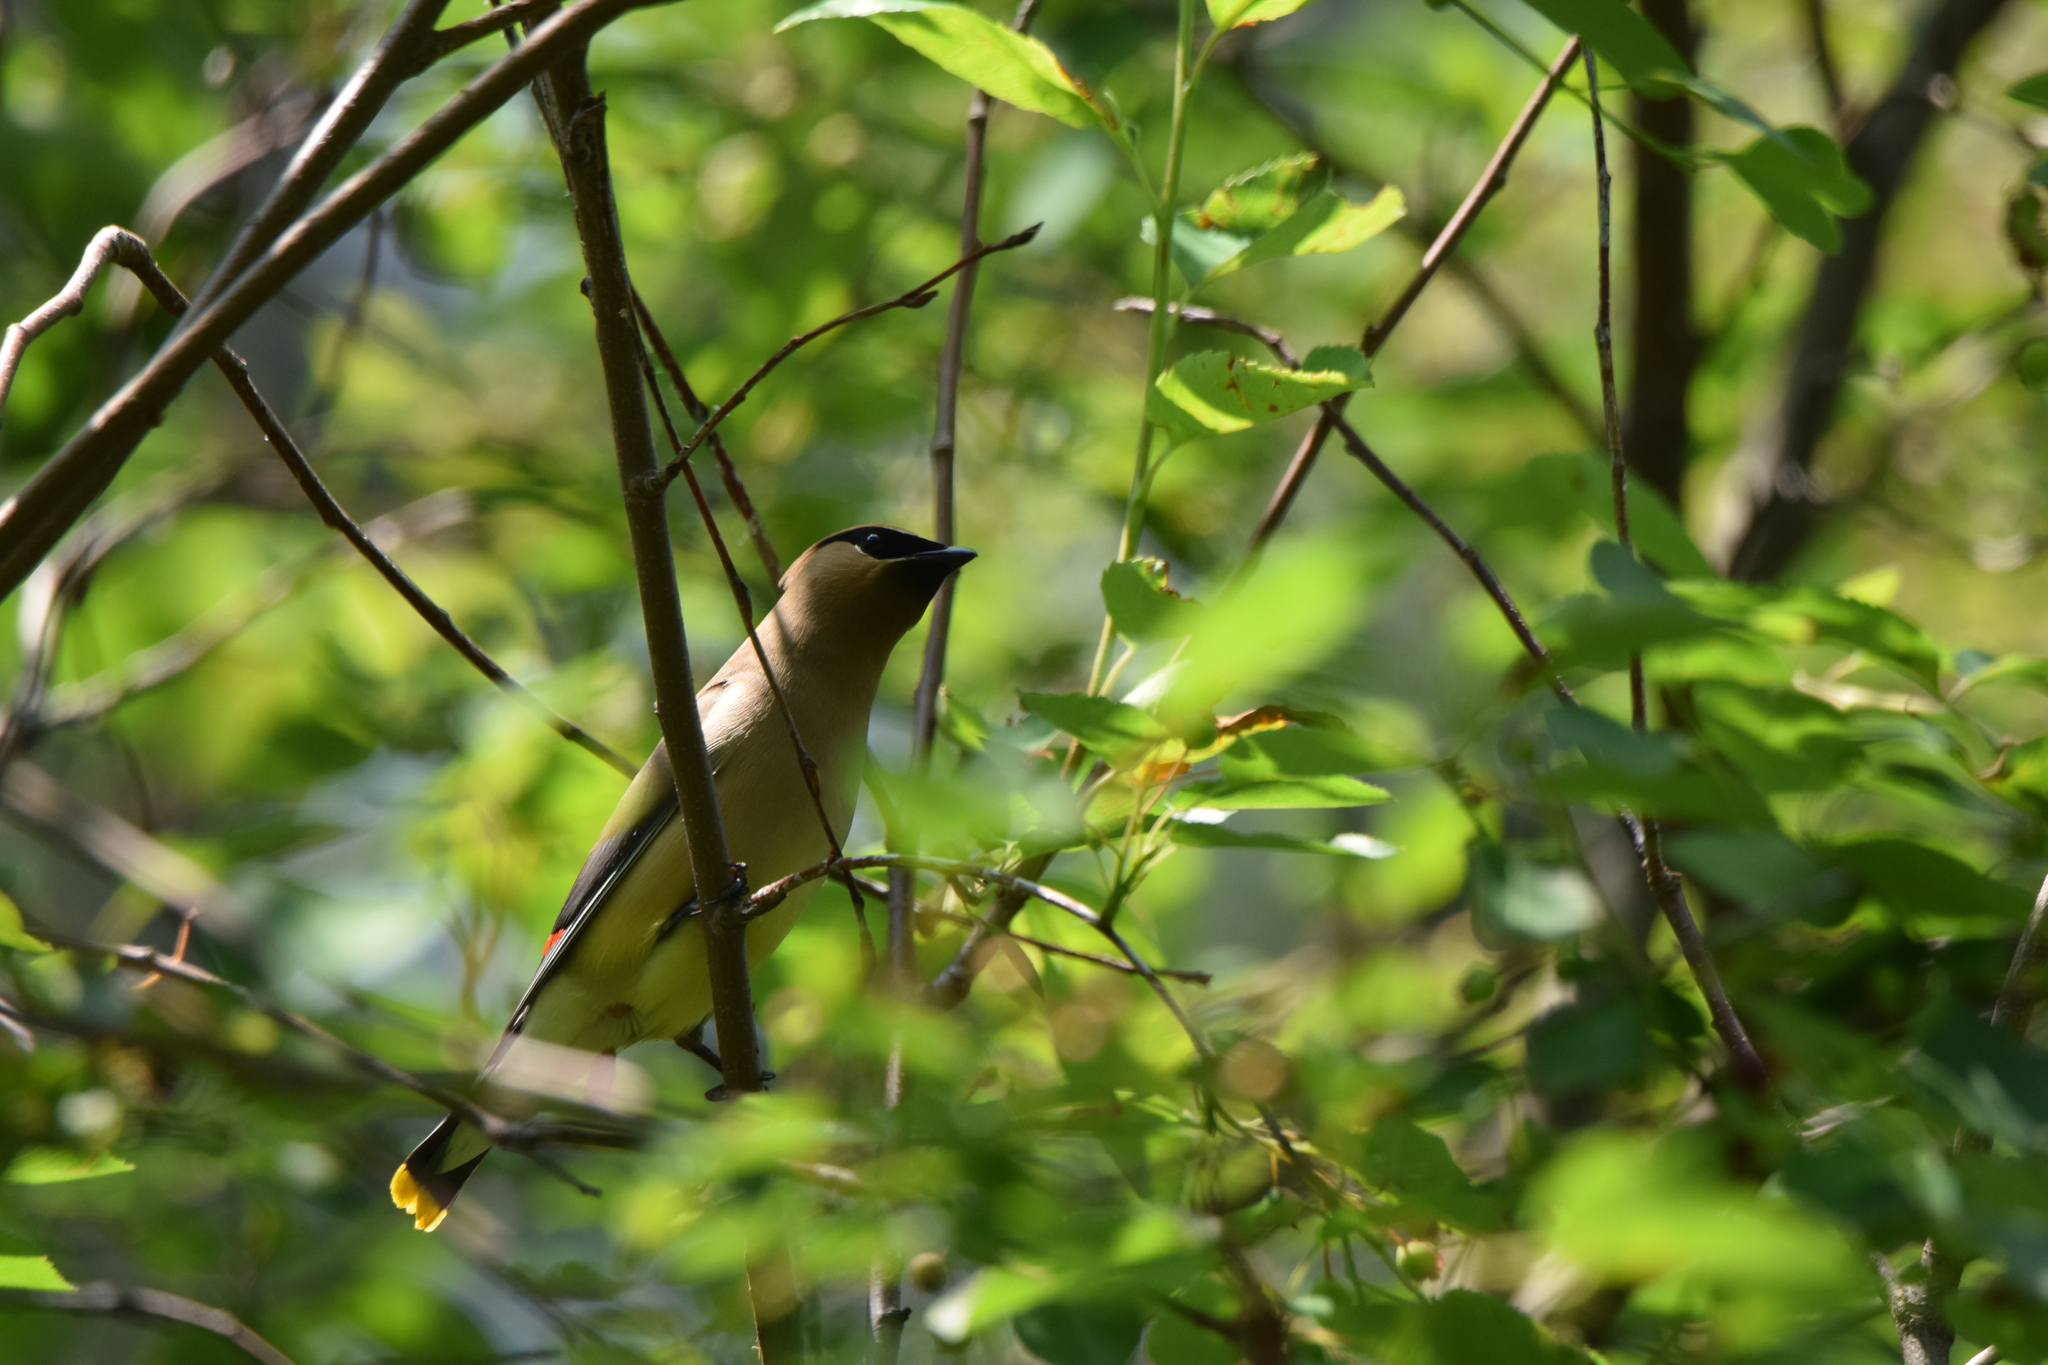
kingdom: Animalia
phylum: Chordata
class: Aves
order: Passeriformes
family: Bombycillidae
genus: Bombycilla
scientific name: Bombycilla cedrorum
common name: Cedar waxwing
